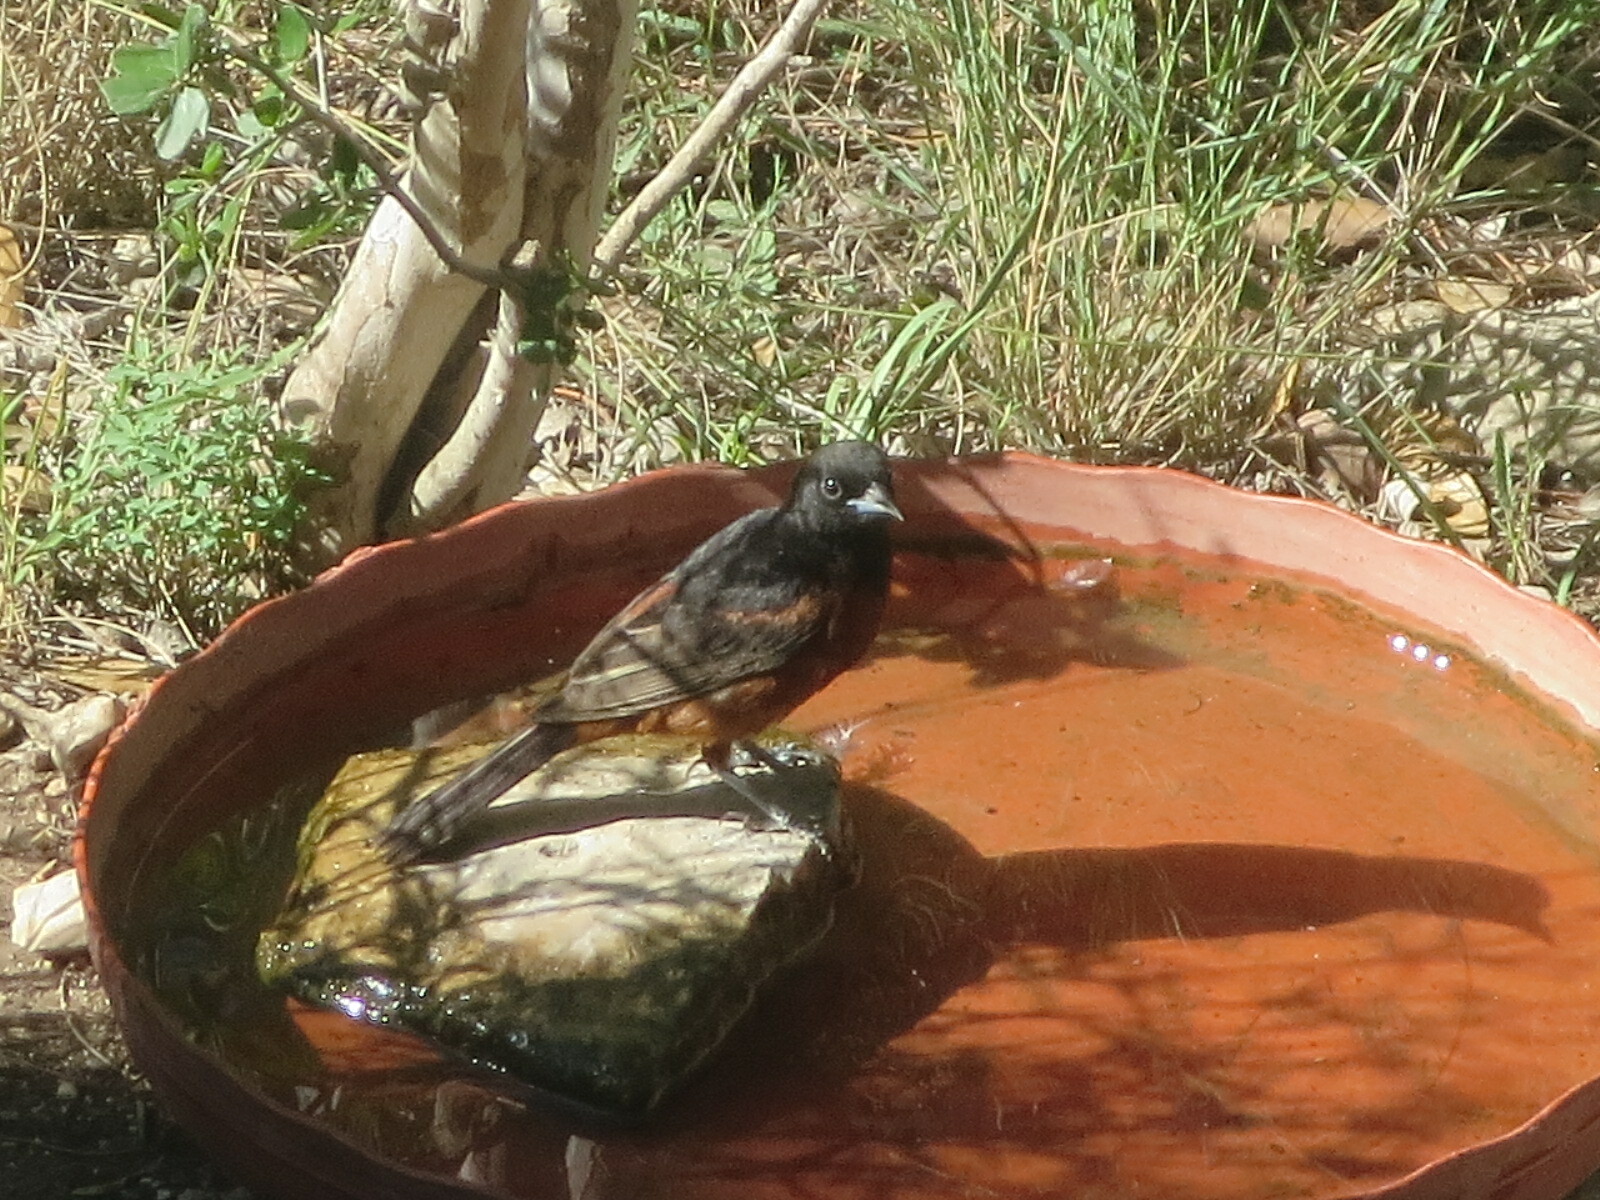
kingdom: Animalia
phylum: Chordata
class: Aves
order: Passeriformes
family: Icteridae
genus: Icterus
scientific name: Icterus spurius
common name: Orchard oriole
